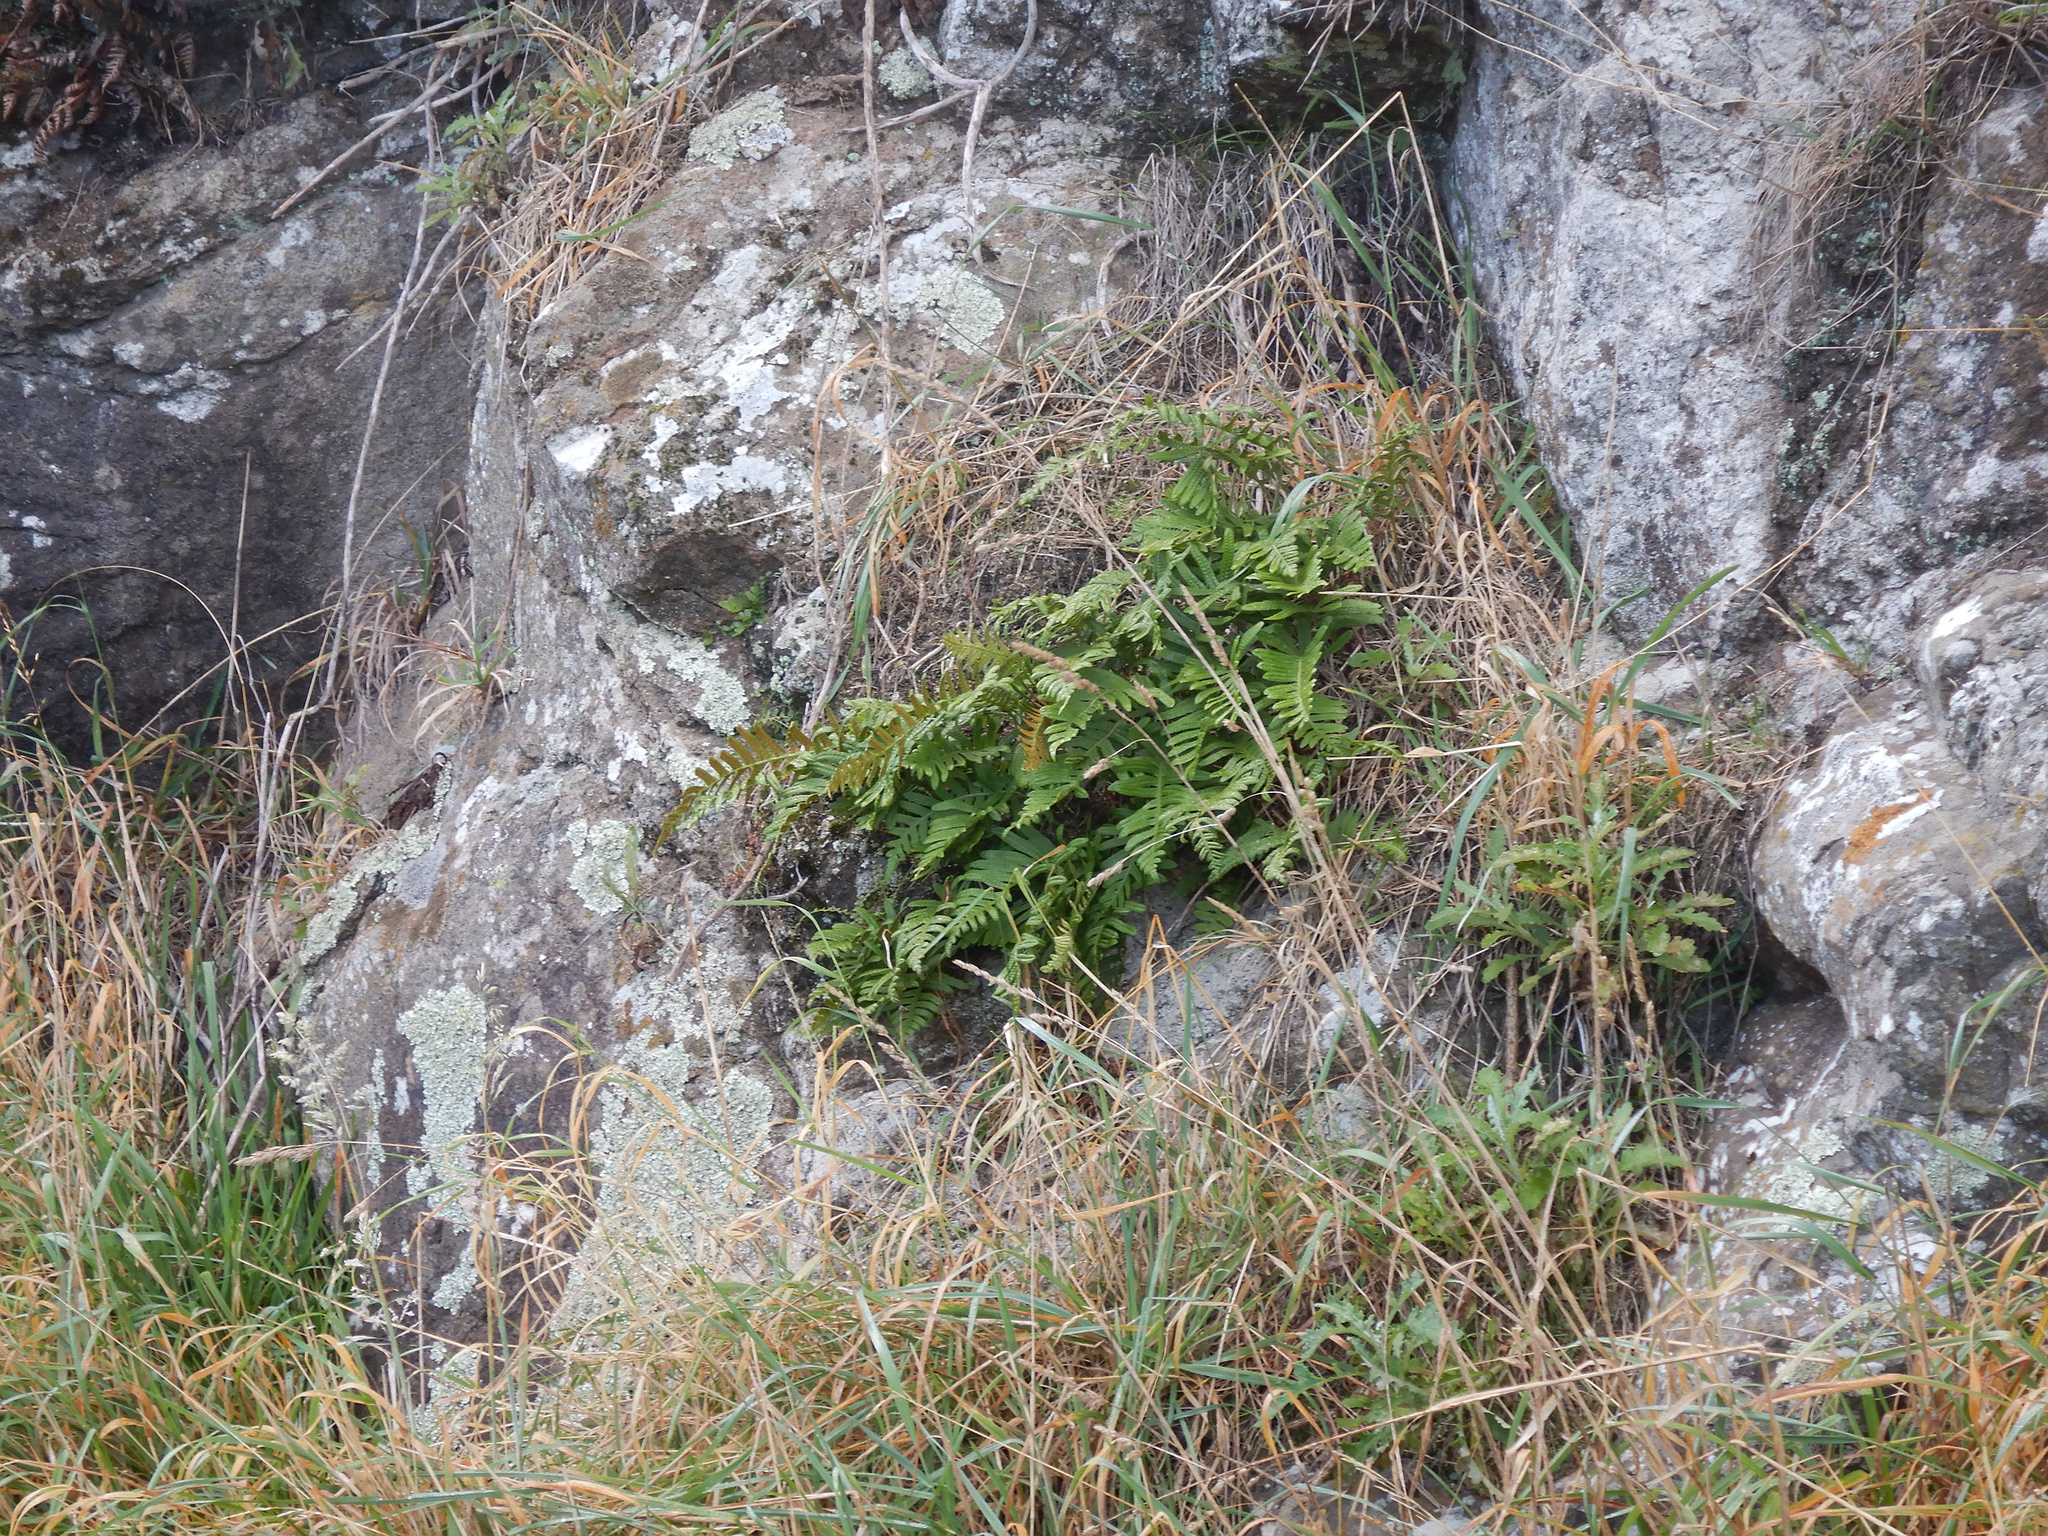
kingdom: Plantae
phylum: Tracheophyta
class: Polypodiopsida
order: Polypodiales
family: Polypodiaceae
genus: Polypodium
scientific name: Polypodium vulgare
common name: Common polypody
